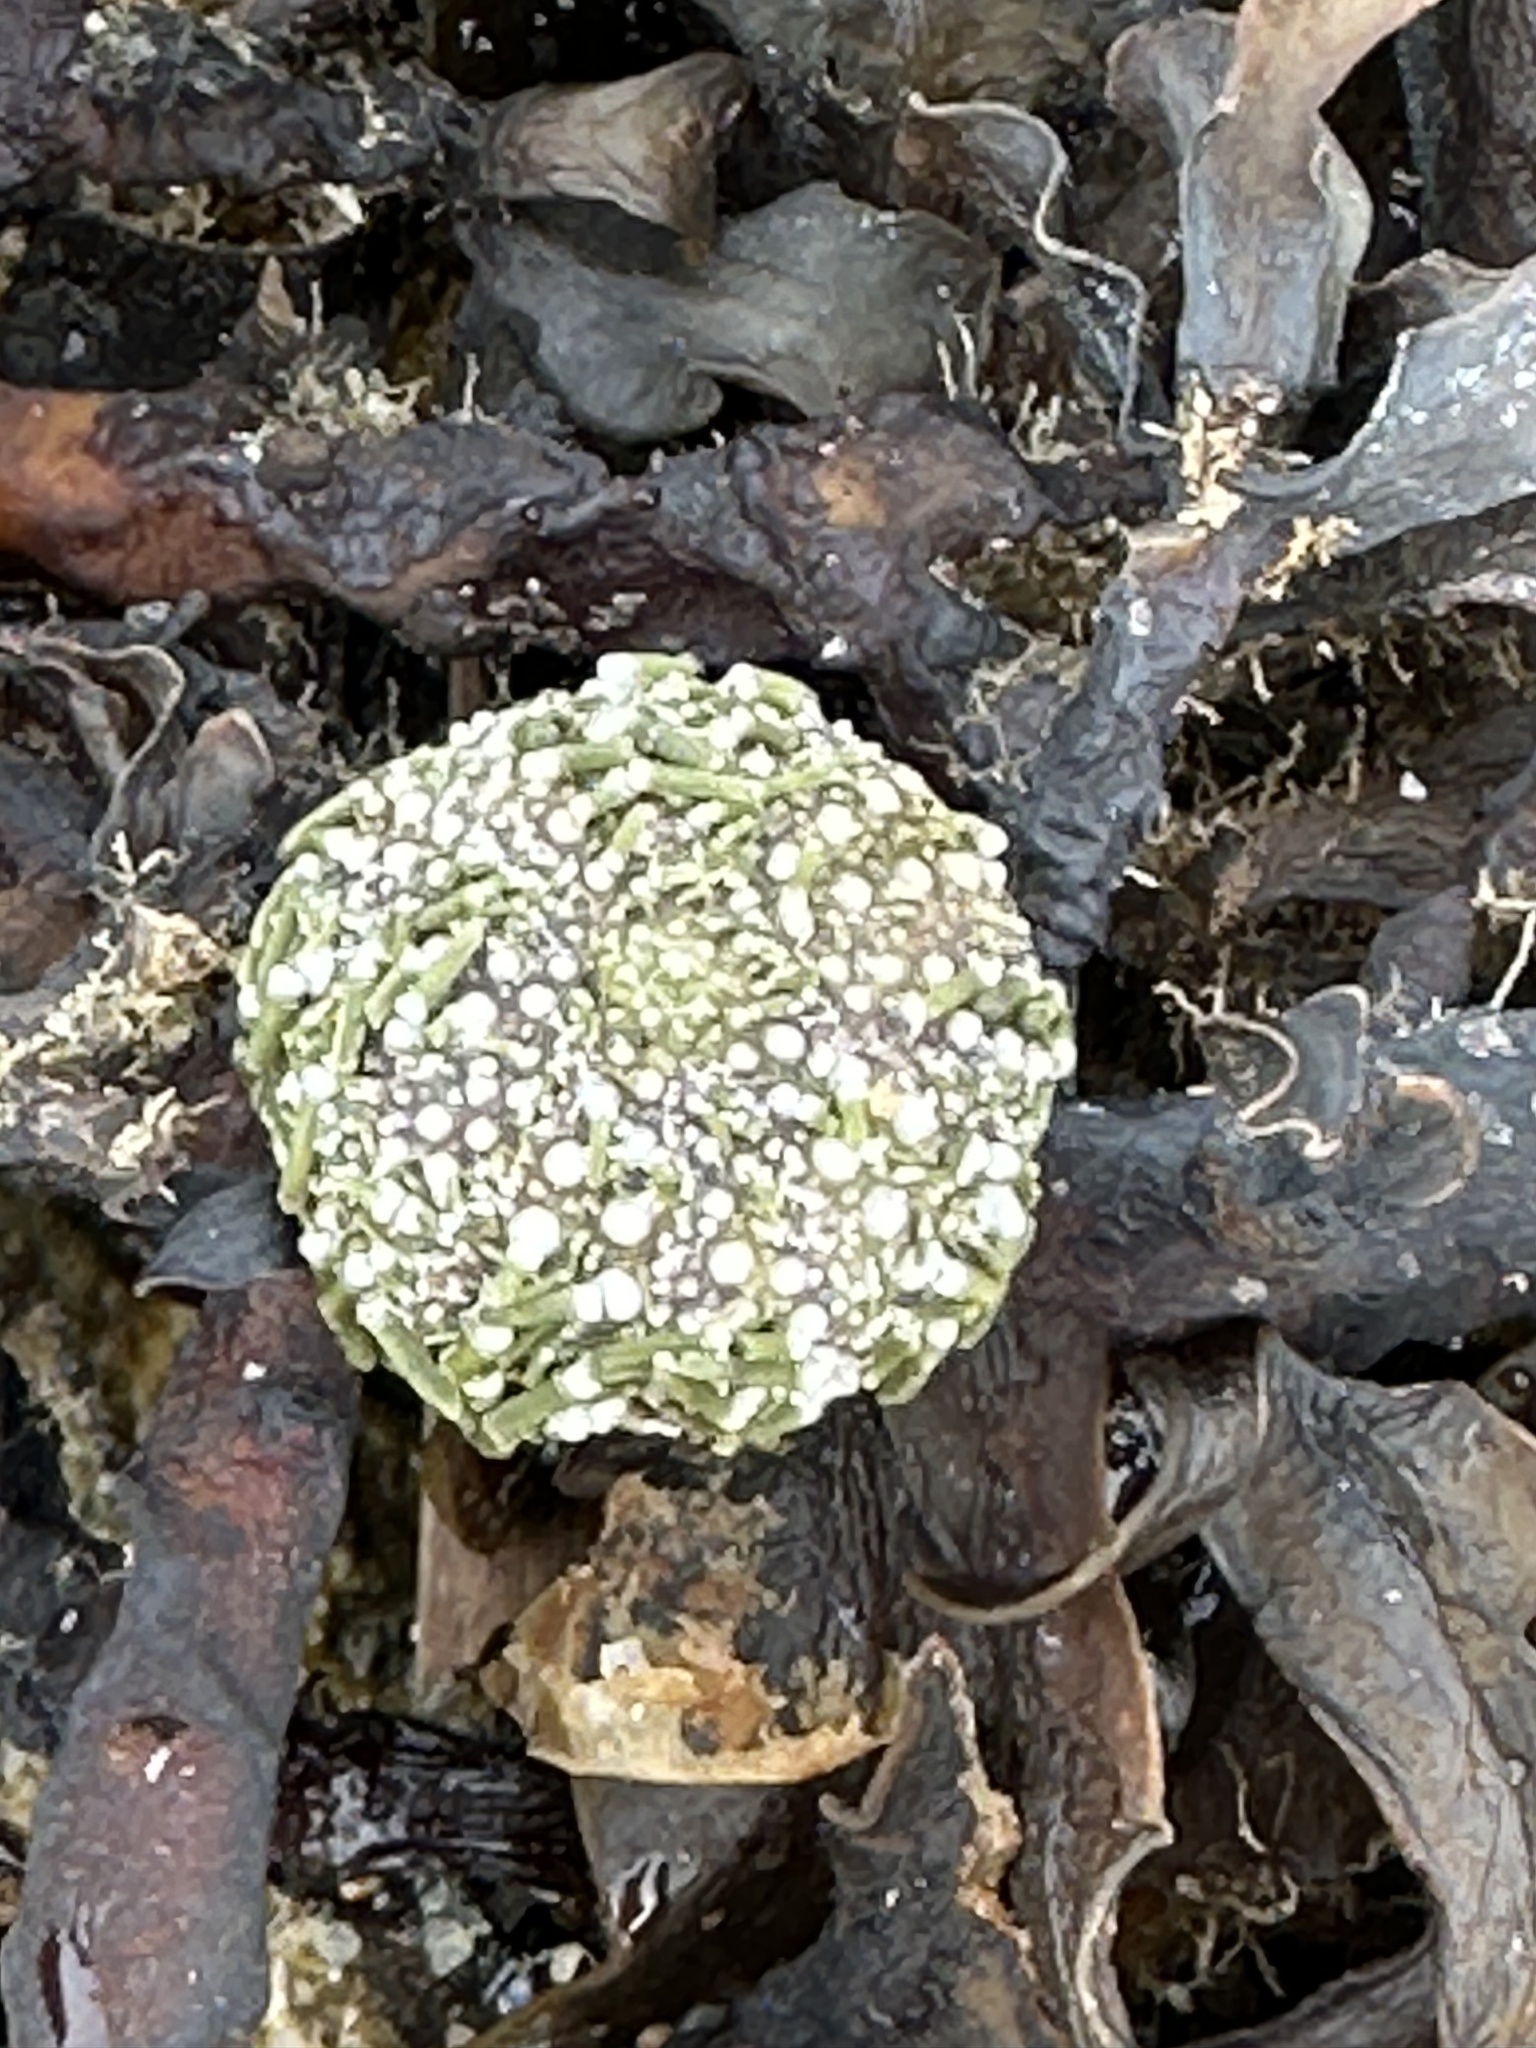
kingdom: Animalia
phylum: Echinodermata
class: Echinoidea
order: Camarodonta
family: Strongylocentrotidae
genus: Strongylocentrotus
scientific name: Strongylocentrotus purpuratus
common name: Purple sea urchin
